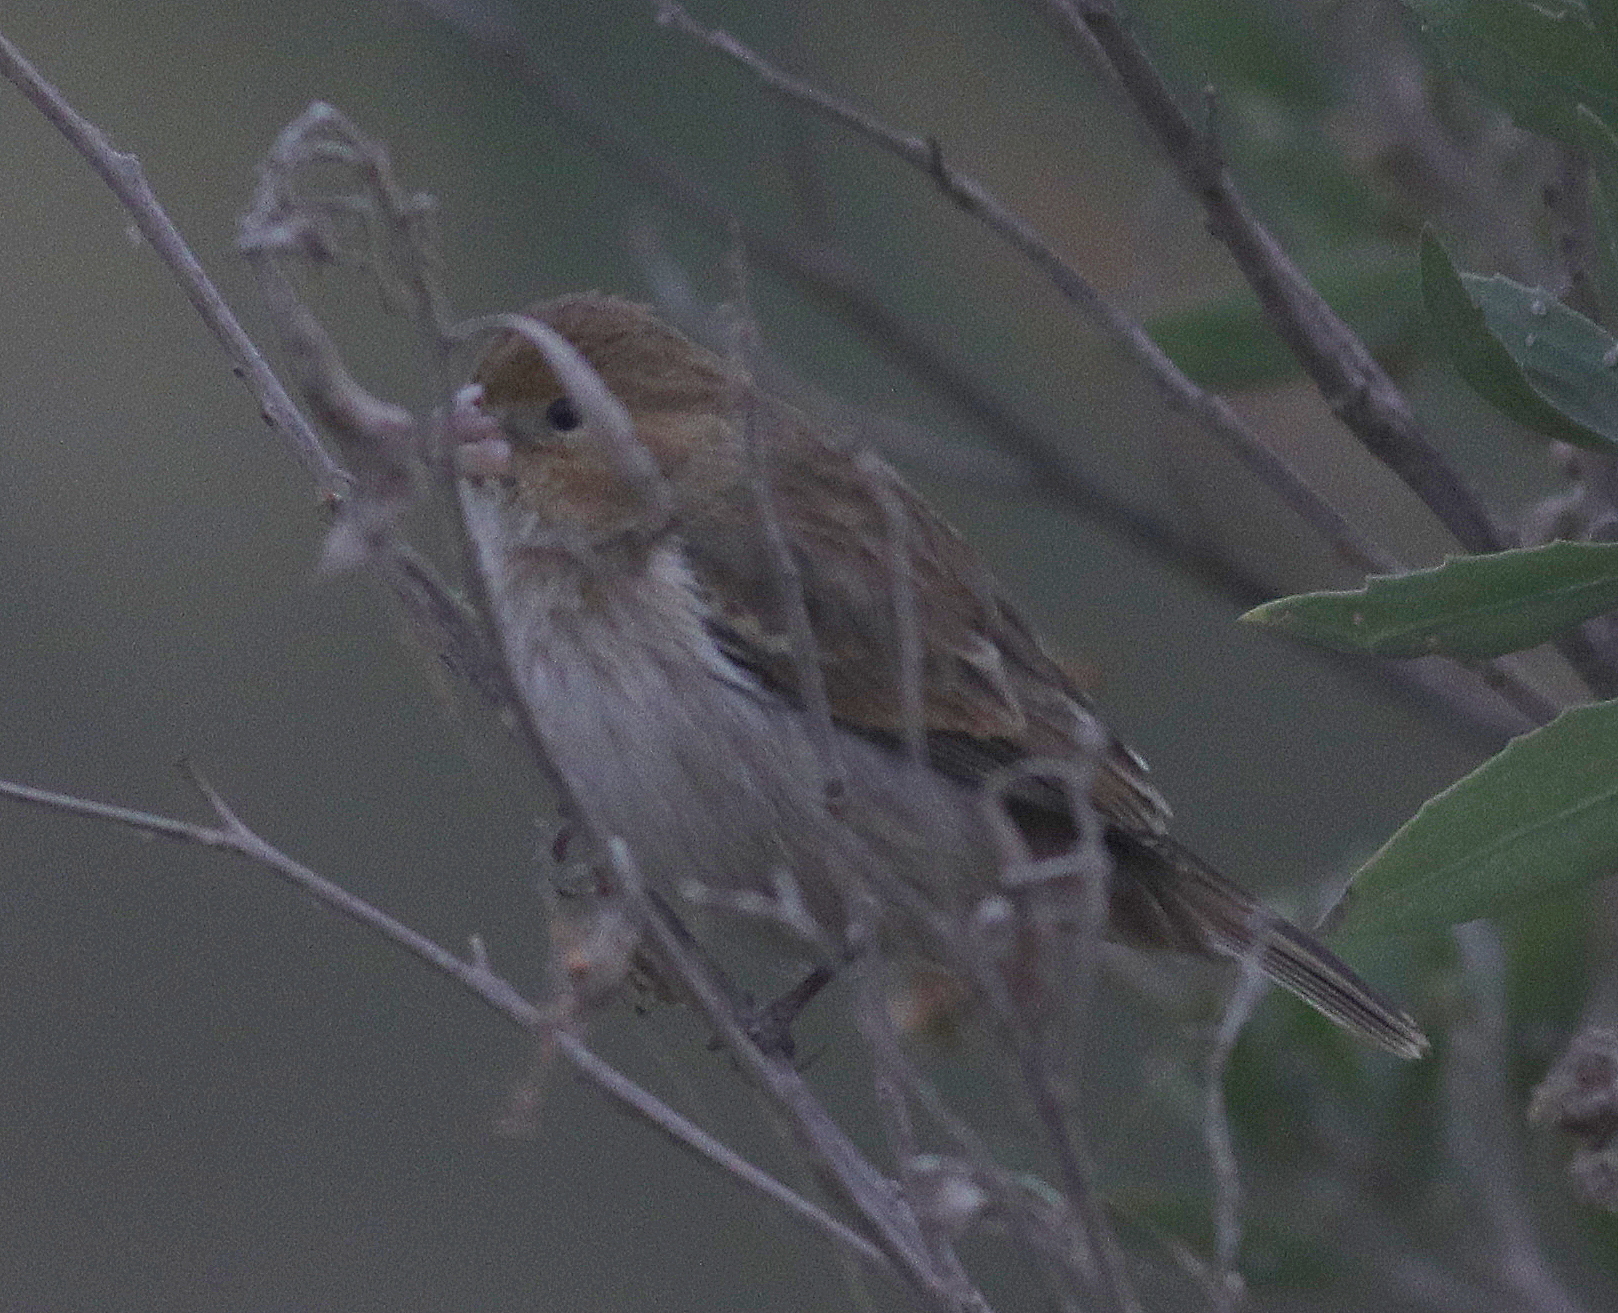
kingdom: Animalia
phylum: Chordata
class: Aves
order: Passeriformes
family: Thraupidae
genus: Sporophila
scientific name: Sporophila telasco
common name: Chestnut-throated seedeater
